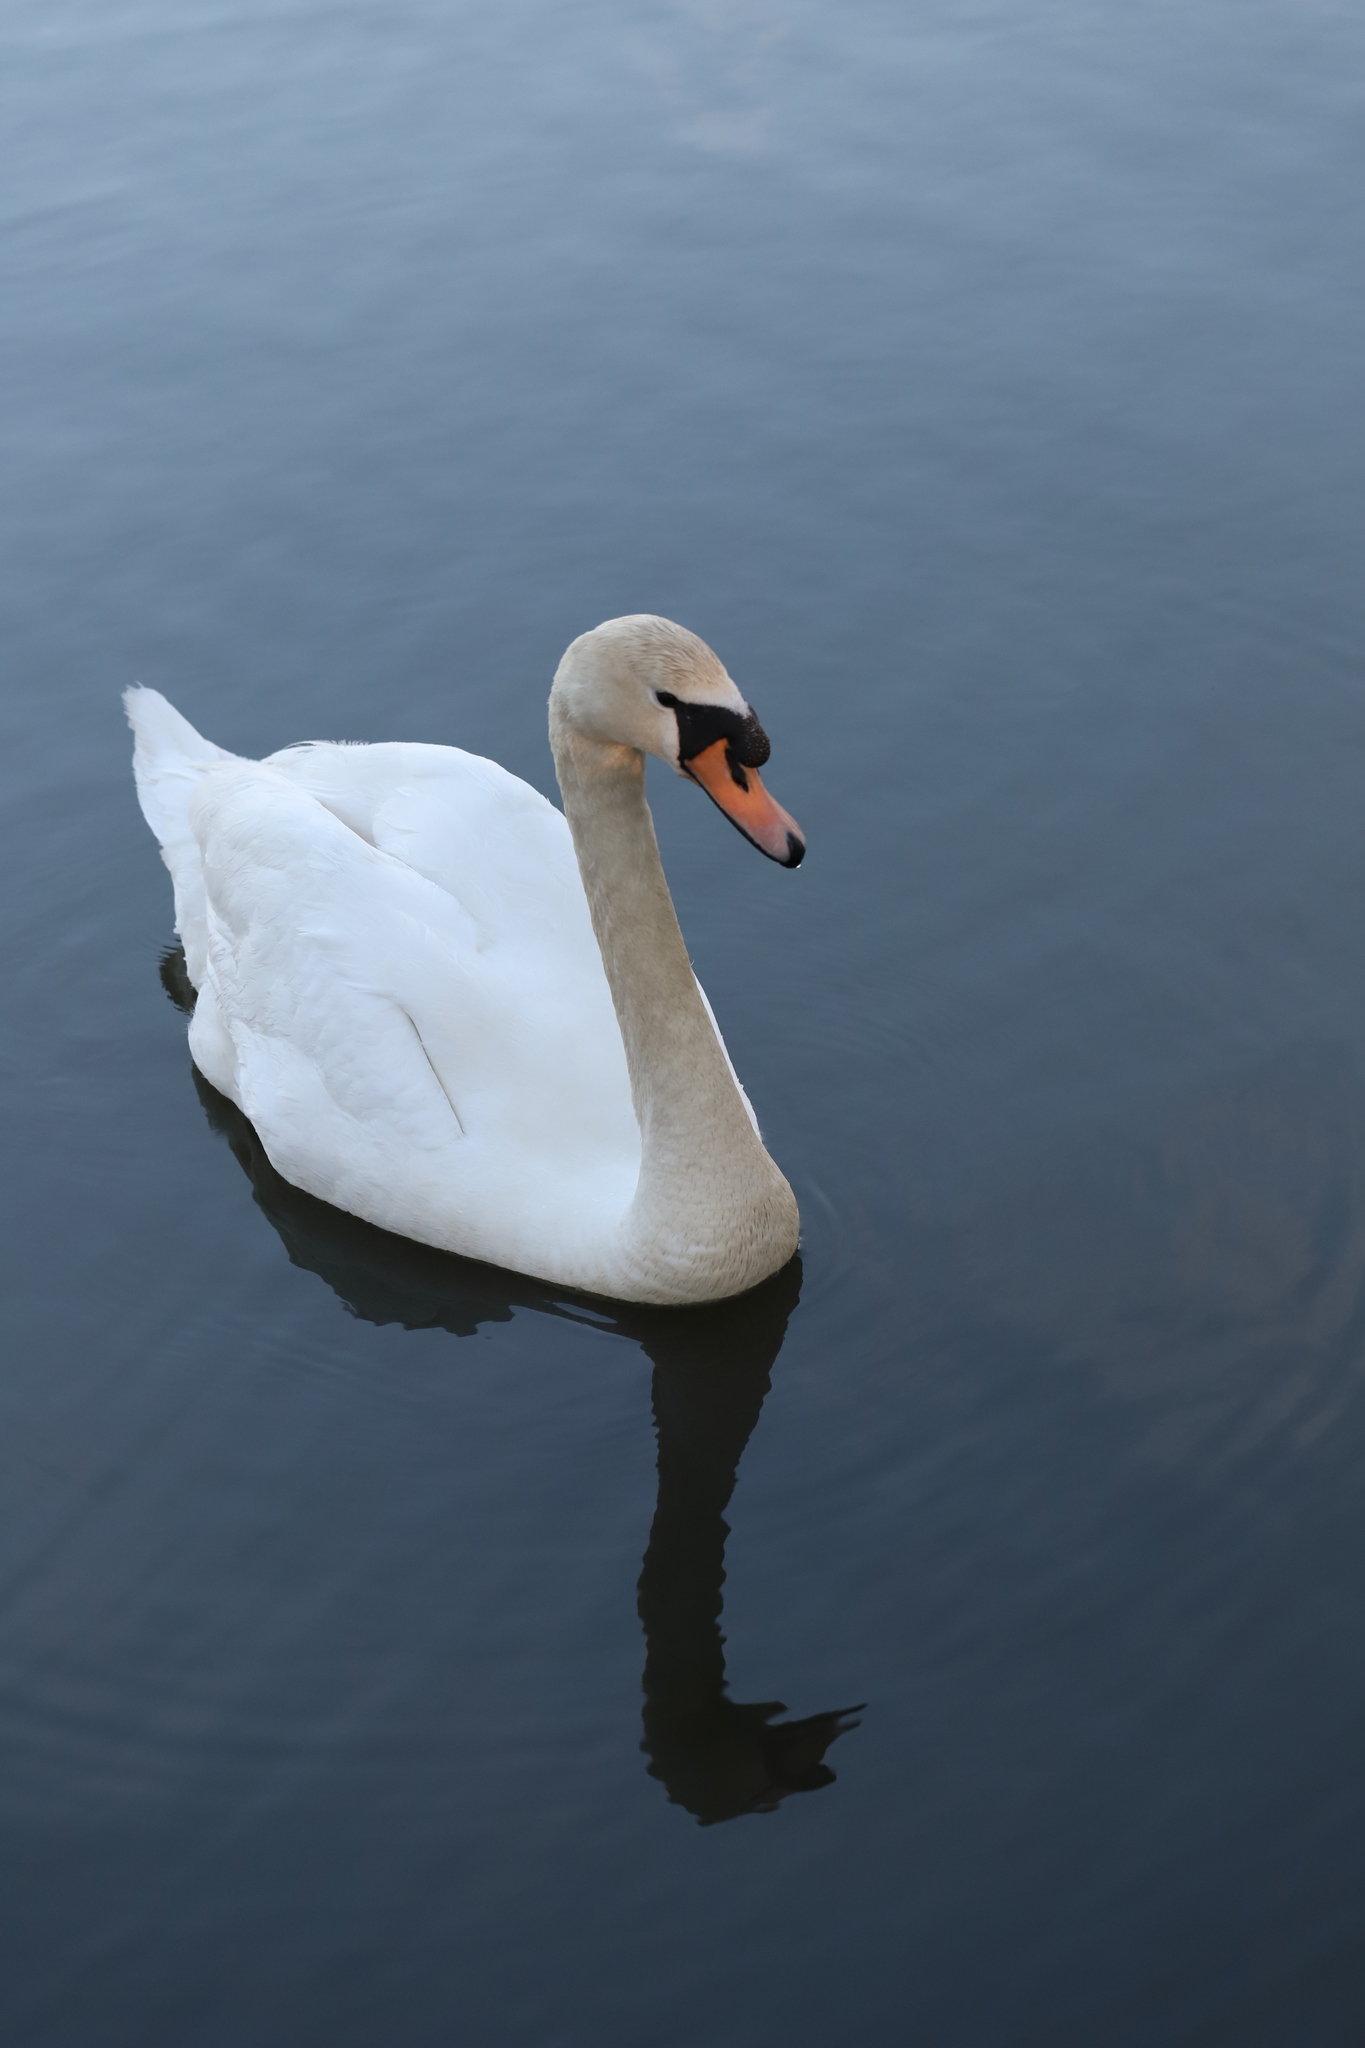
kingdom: Animalia
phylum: Chordata
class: Aves
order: Anseriformes
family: Anatidae
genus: Cygnus
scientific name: Cygnus olor
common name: Mute swan
